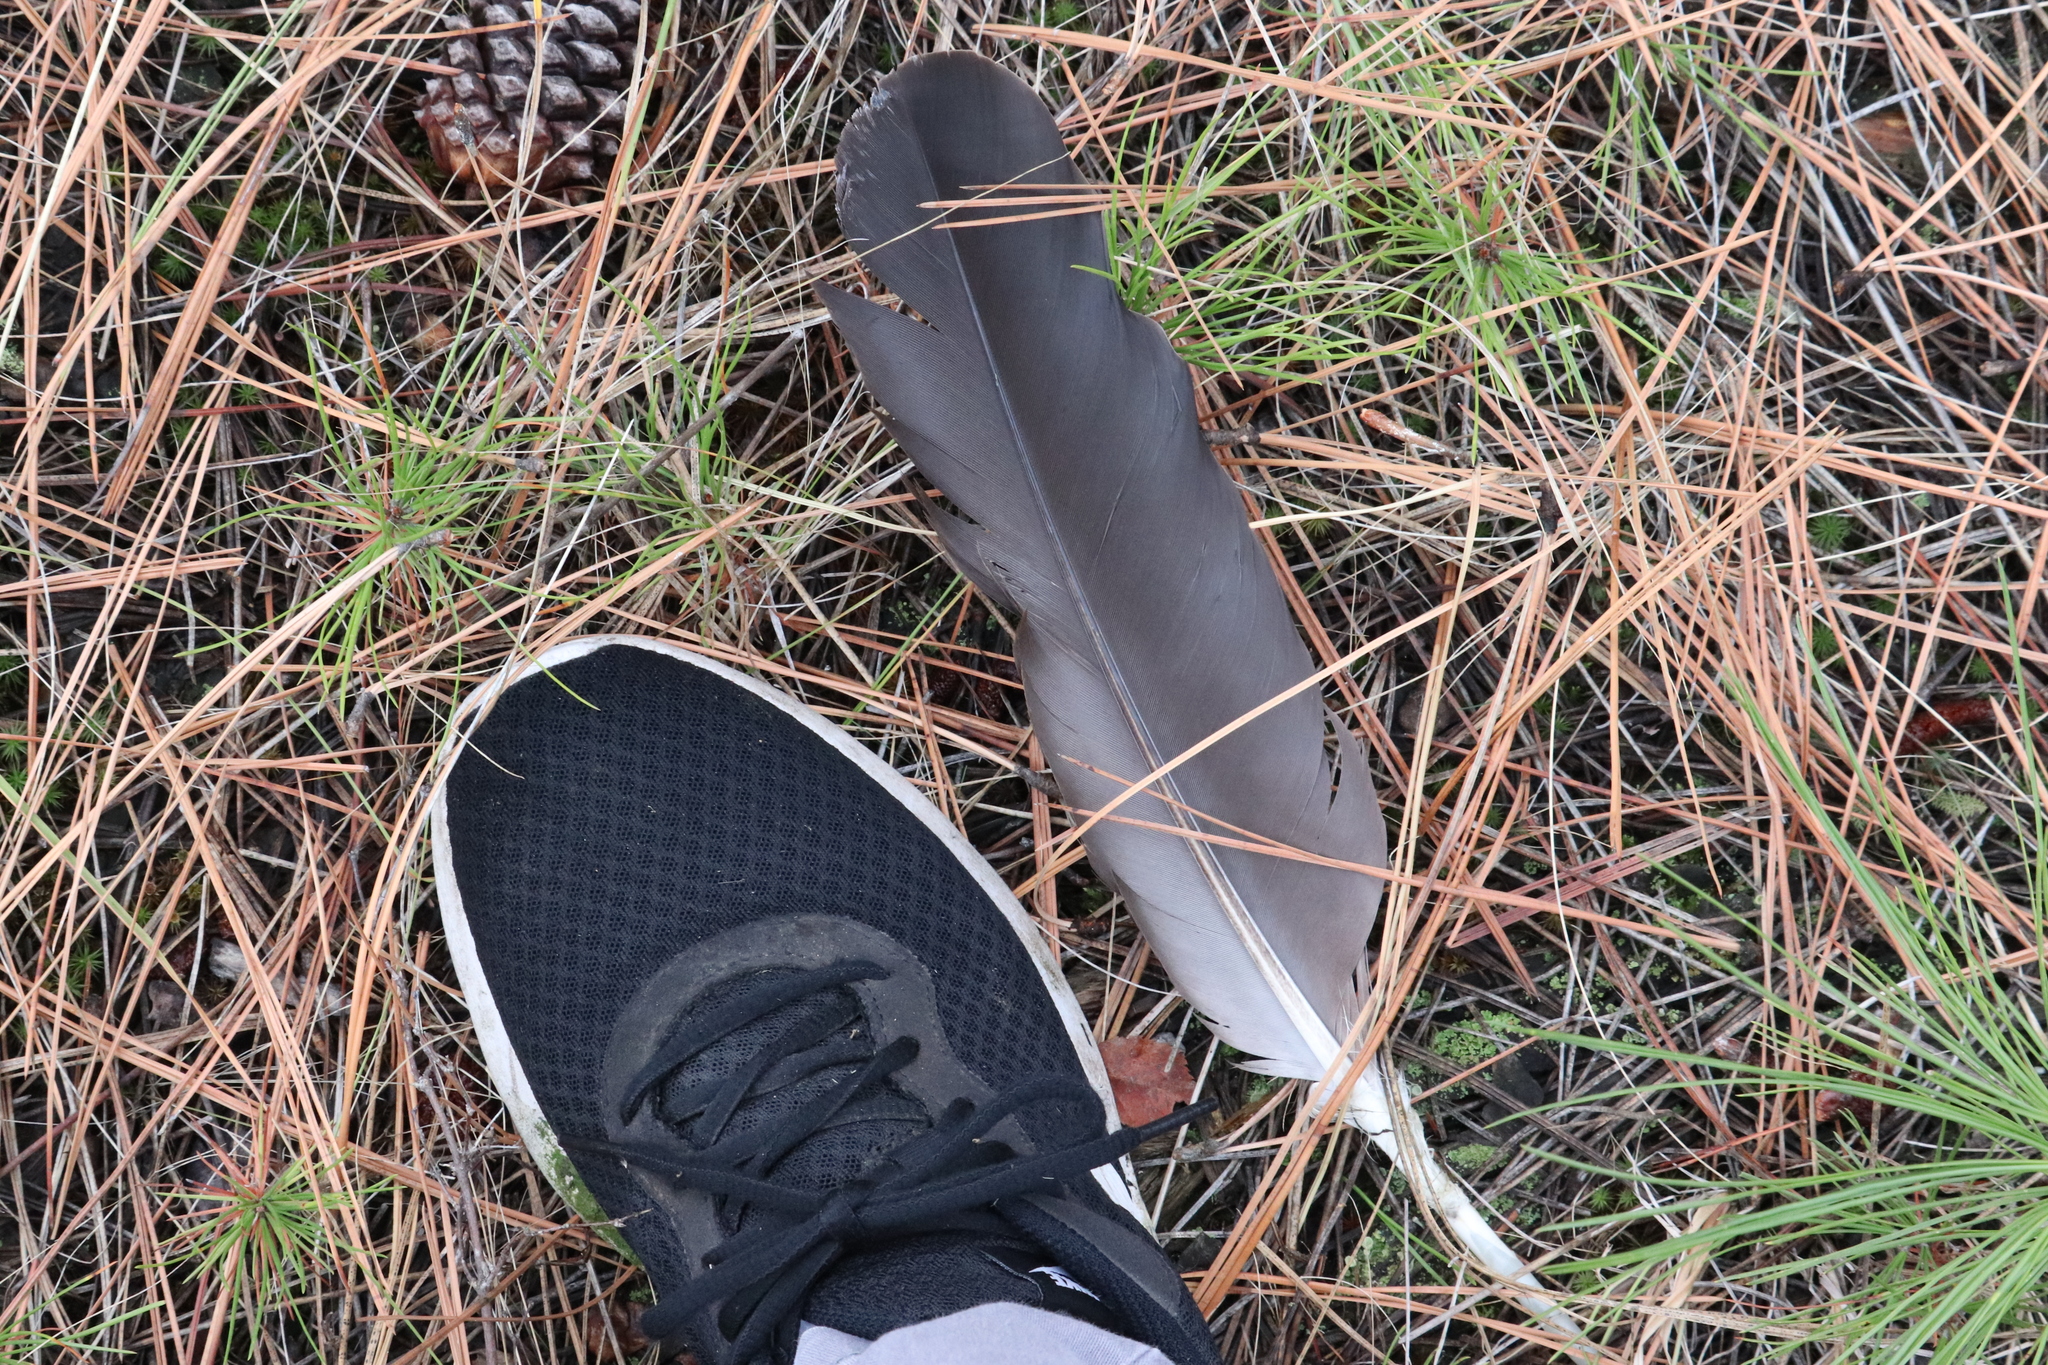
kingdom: Animalia
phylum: Chordata
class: Aves
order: Accipitriformes
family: Accipitridae
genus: Haliaeetus
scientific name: Haliaeetus leucocephalus
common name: Bald eagle
